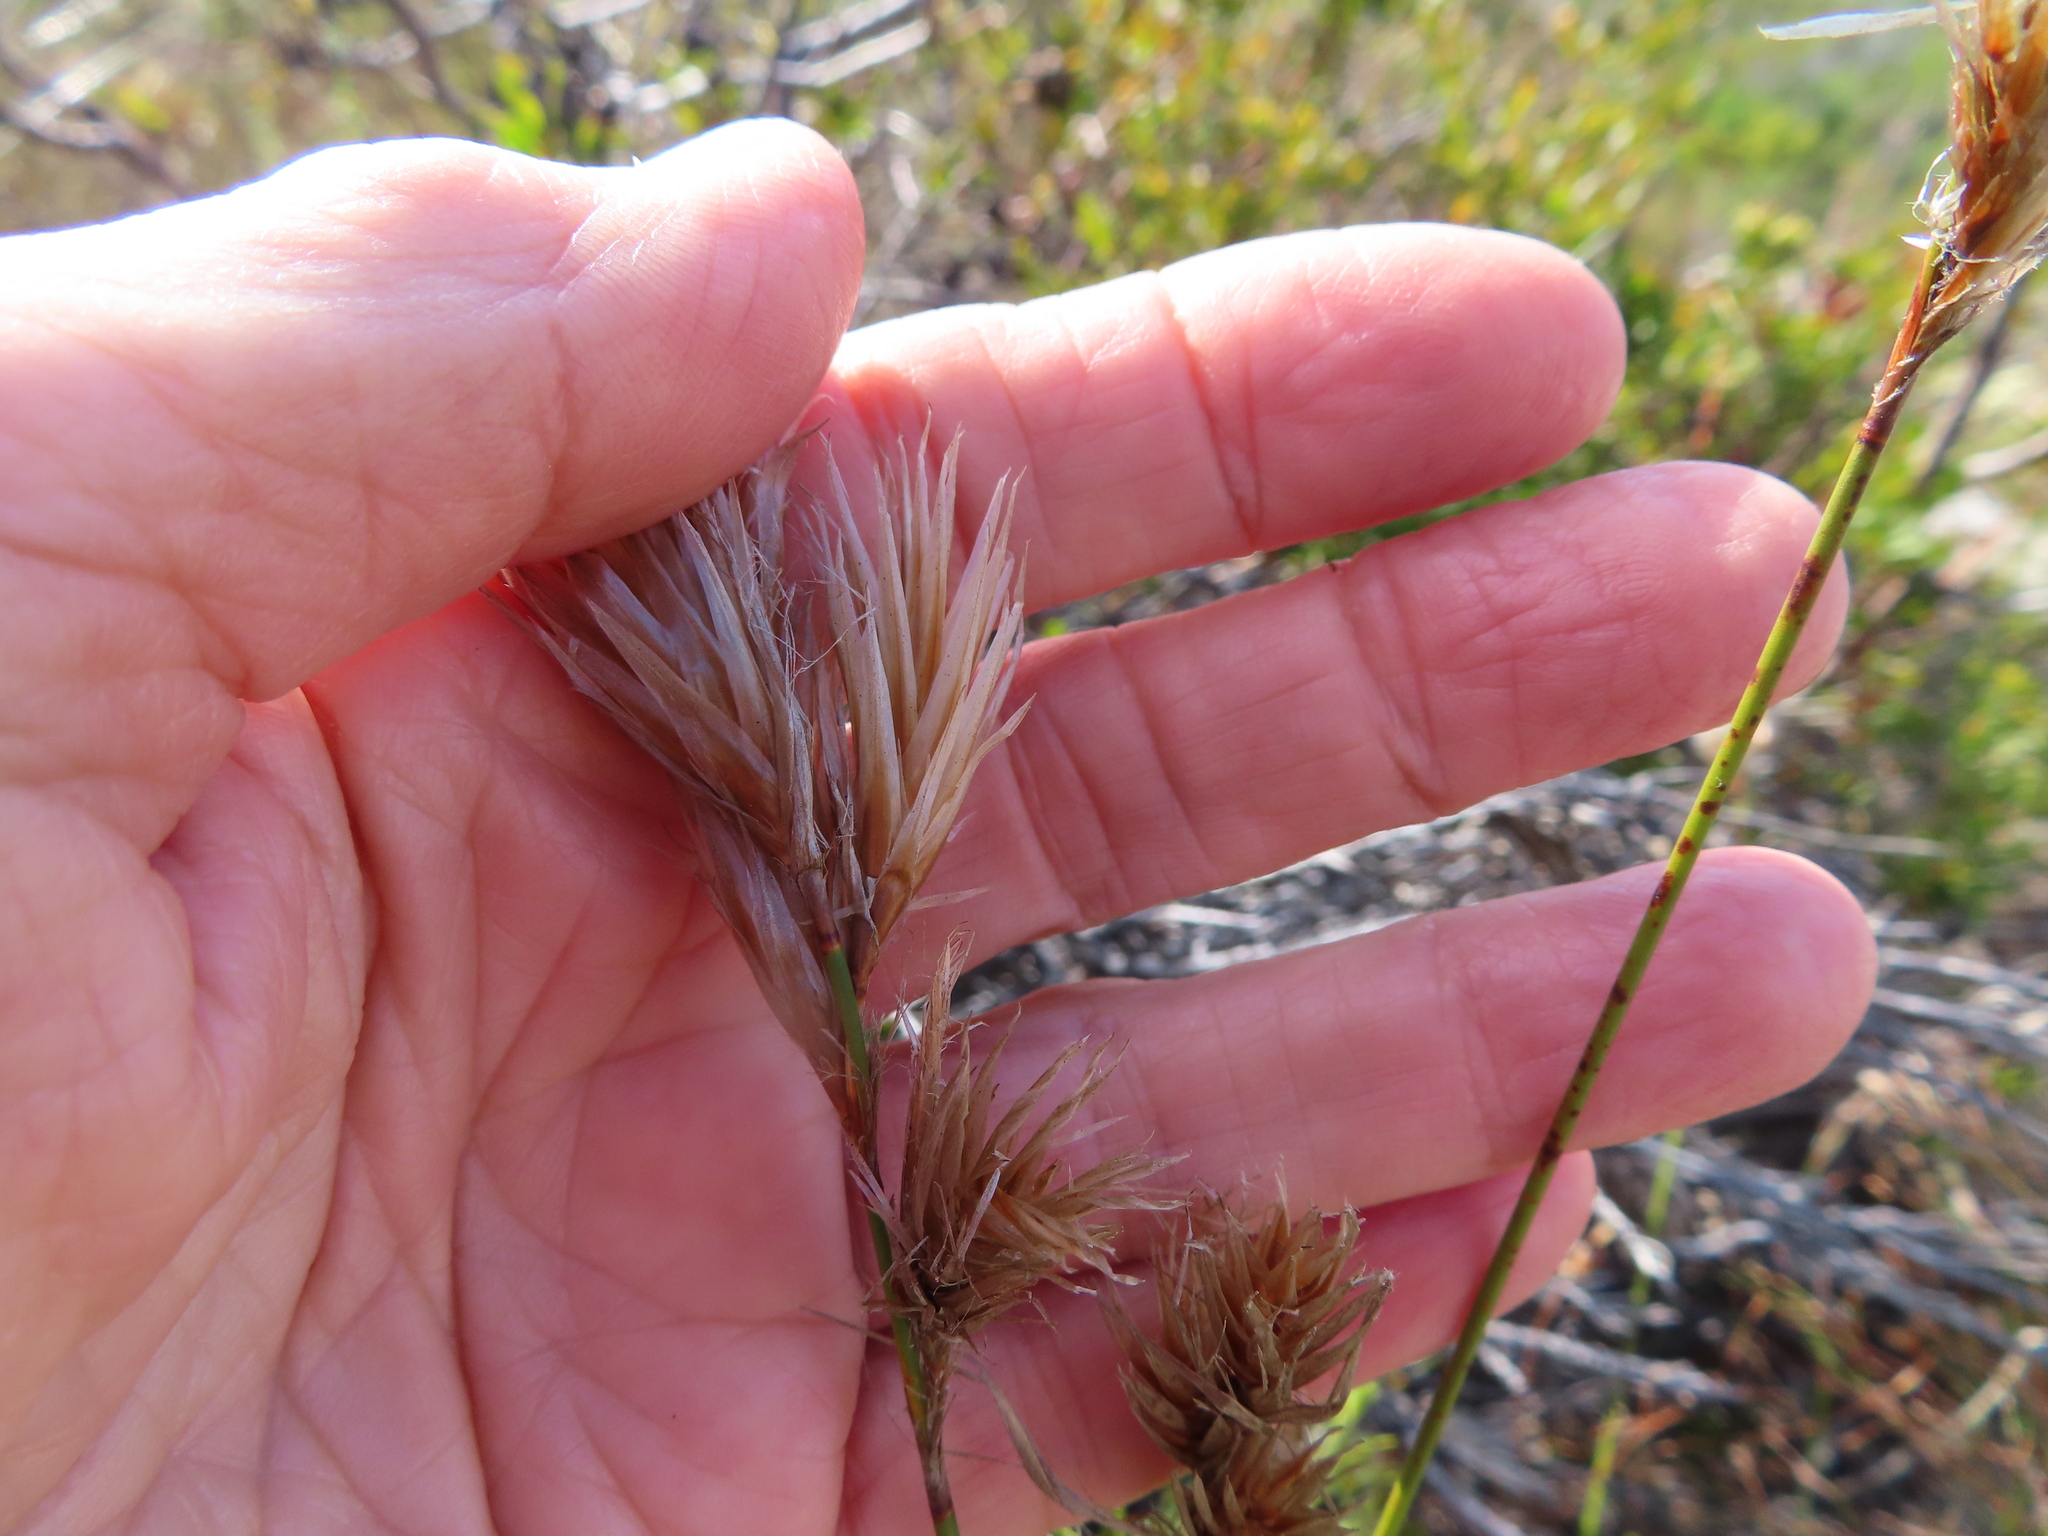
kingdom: Plantae
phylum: Tracheophyta
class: Liliopsida
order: Poales
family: Restionaceae
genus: Thamnochortus
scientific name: Thamnochortus pellucidus
